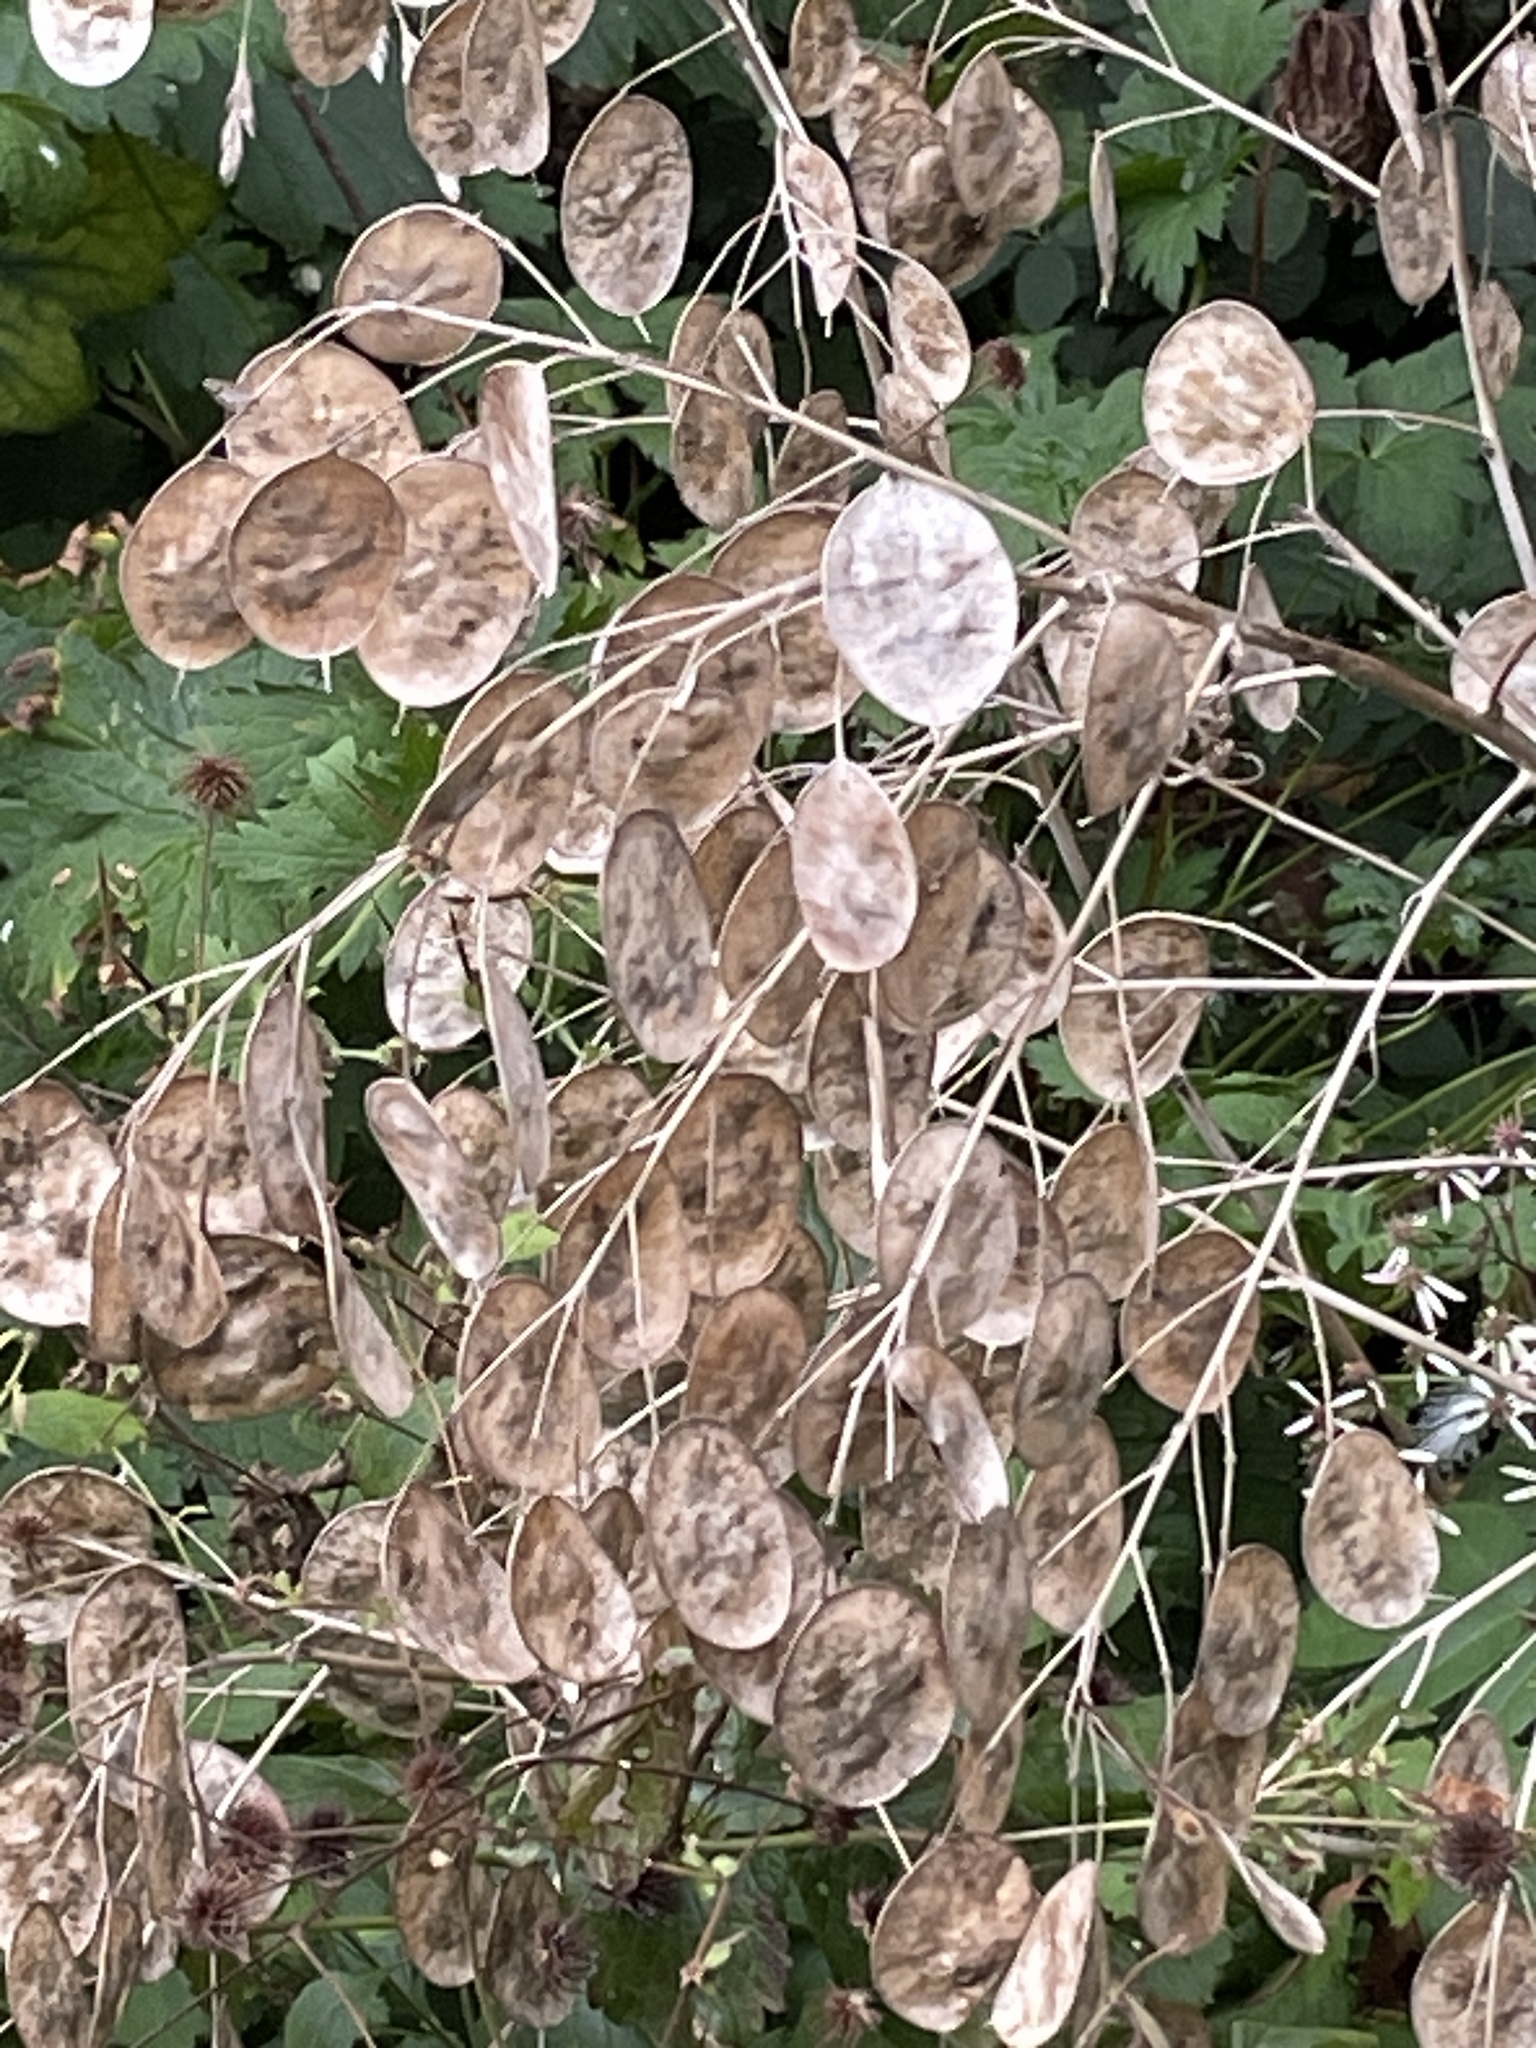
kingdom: Plantae
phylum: Tracheophyta
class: Magnoliopsida
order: Brassicales
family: Brassicaceae
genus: Lunaria
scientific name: Lunaria annua
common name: Honesty
